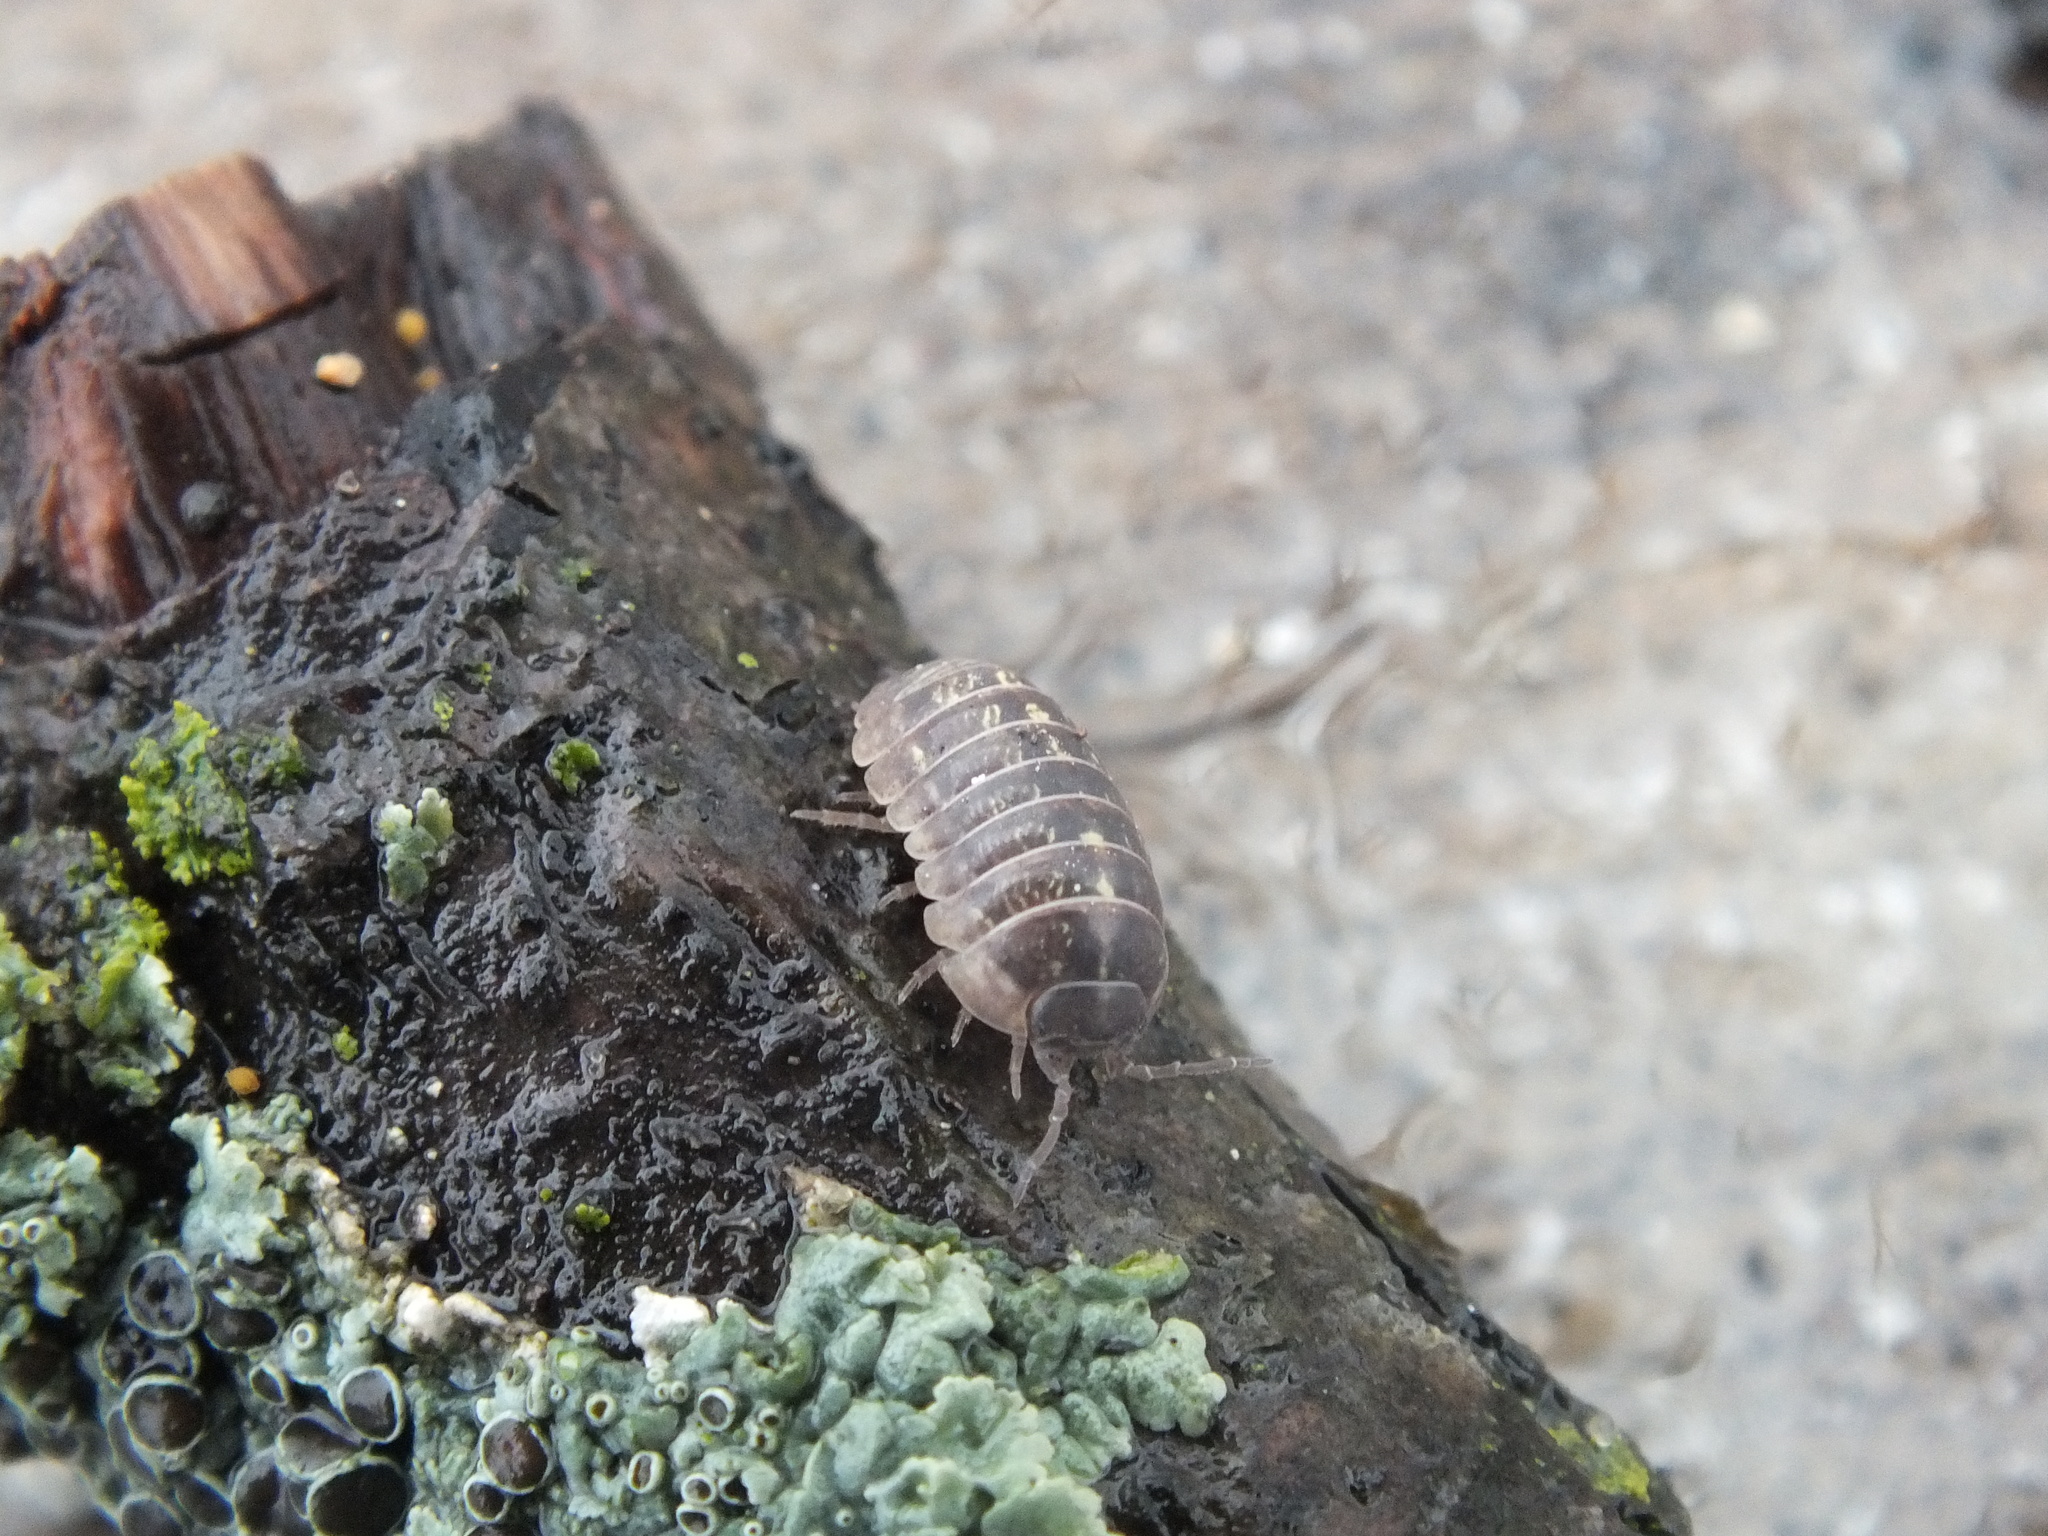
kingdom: Animalia
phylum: Arthropoda
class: Malacostraca
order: Isopoda
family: Armadillidiidae
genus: Armadillidium
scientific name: Armadillidium vulgare
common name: Common pill woodlouse
